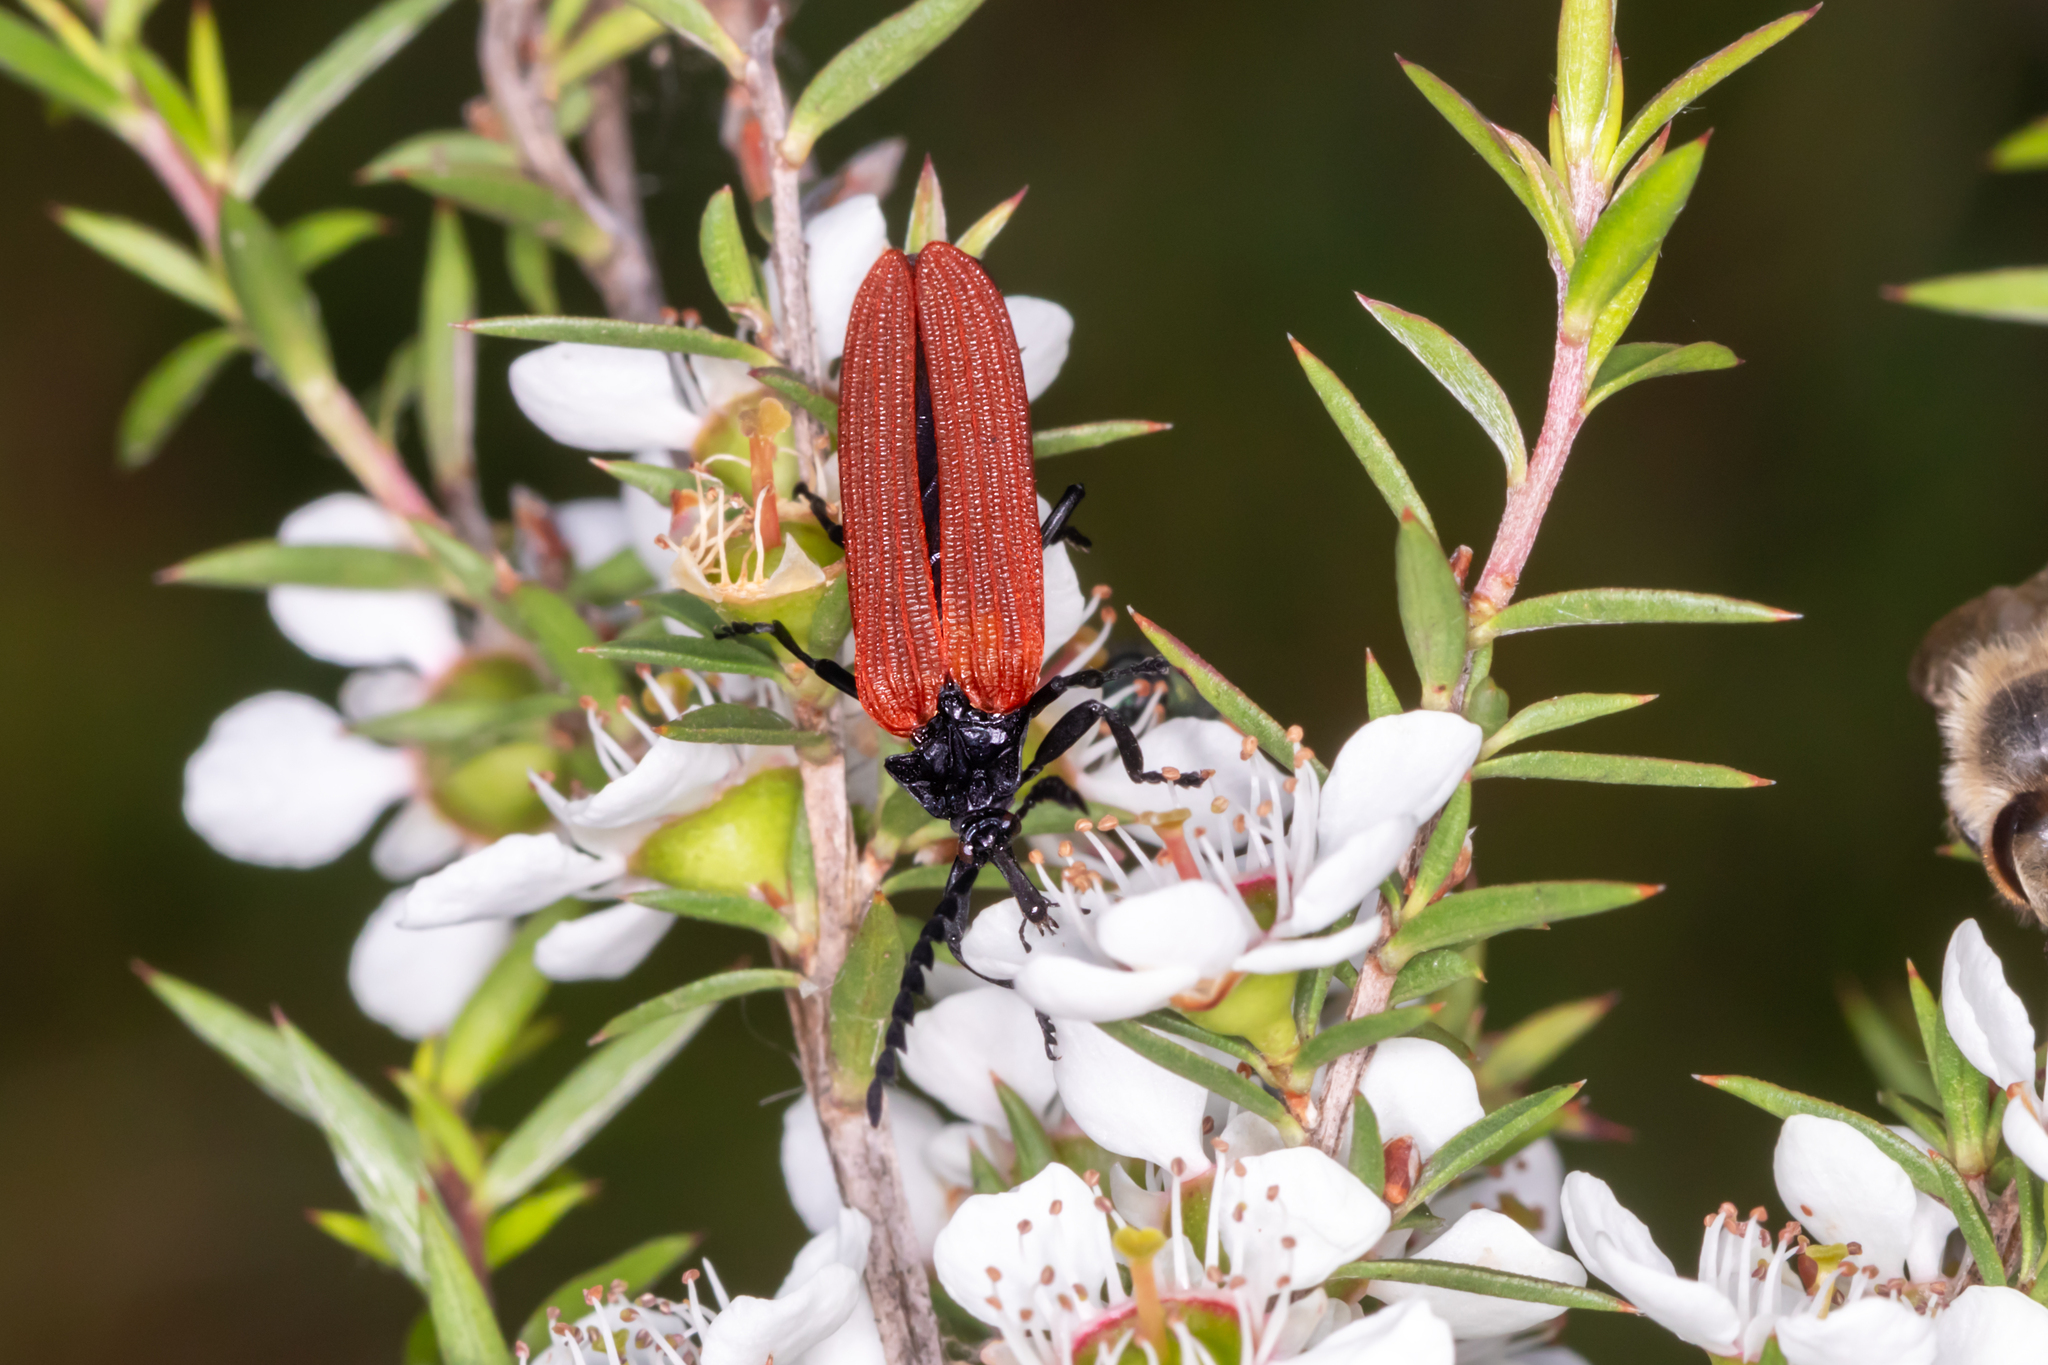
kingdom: Animalia
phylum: Arthropoda
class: Insecta
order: Coleoptera
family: Lycidae
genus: Porrostoma
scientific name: Porrostoma rhipidium
